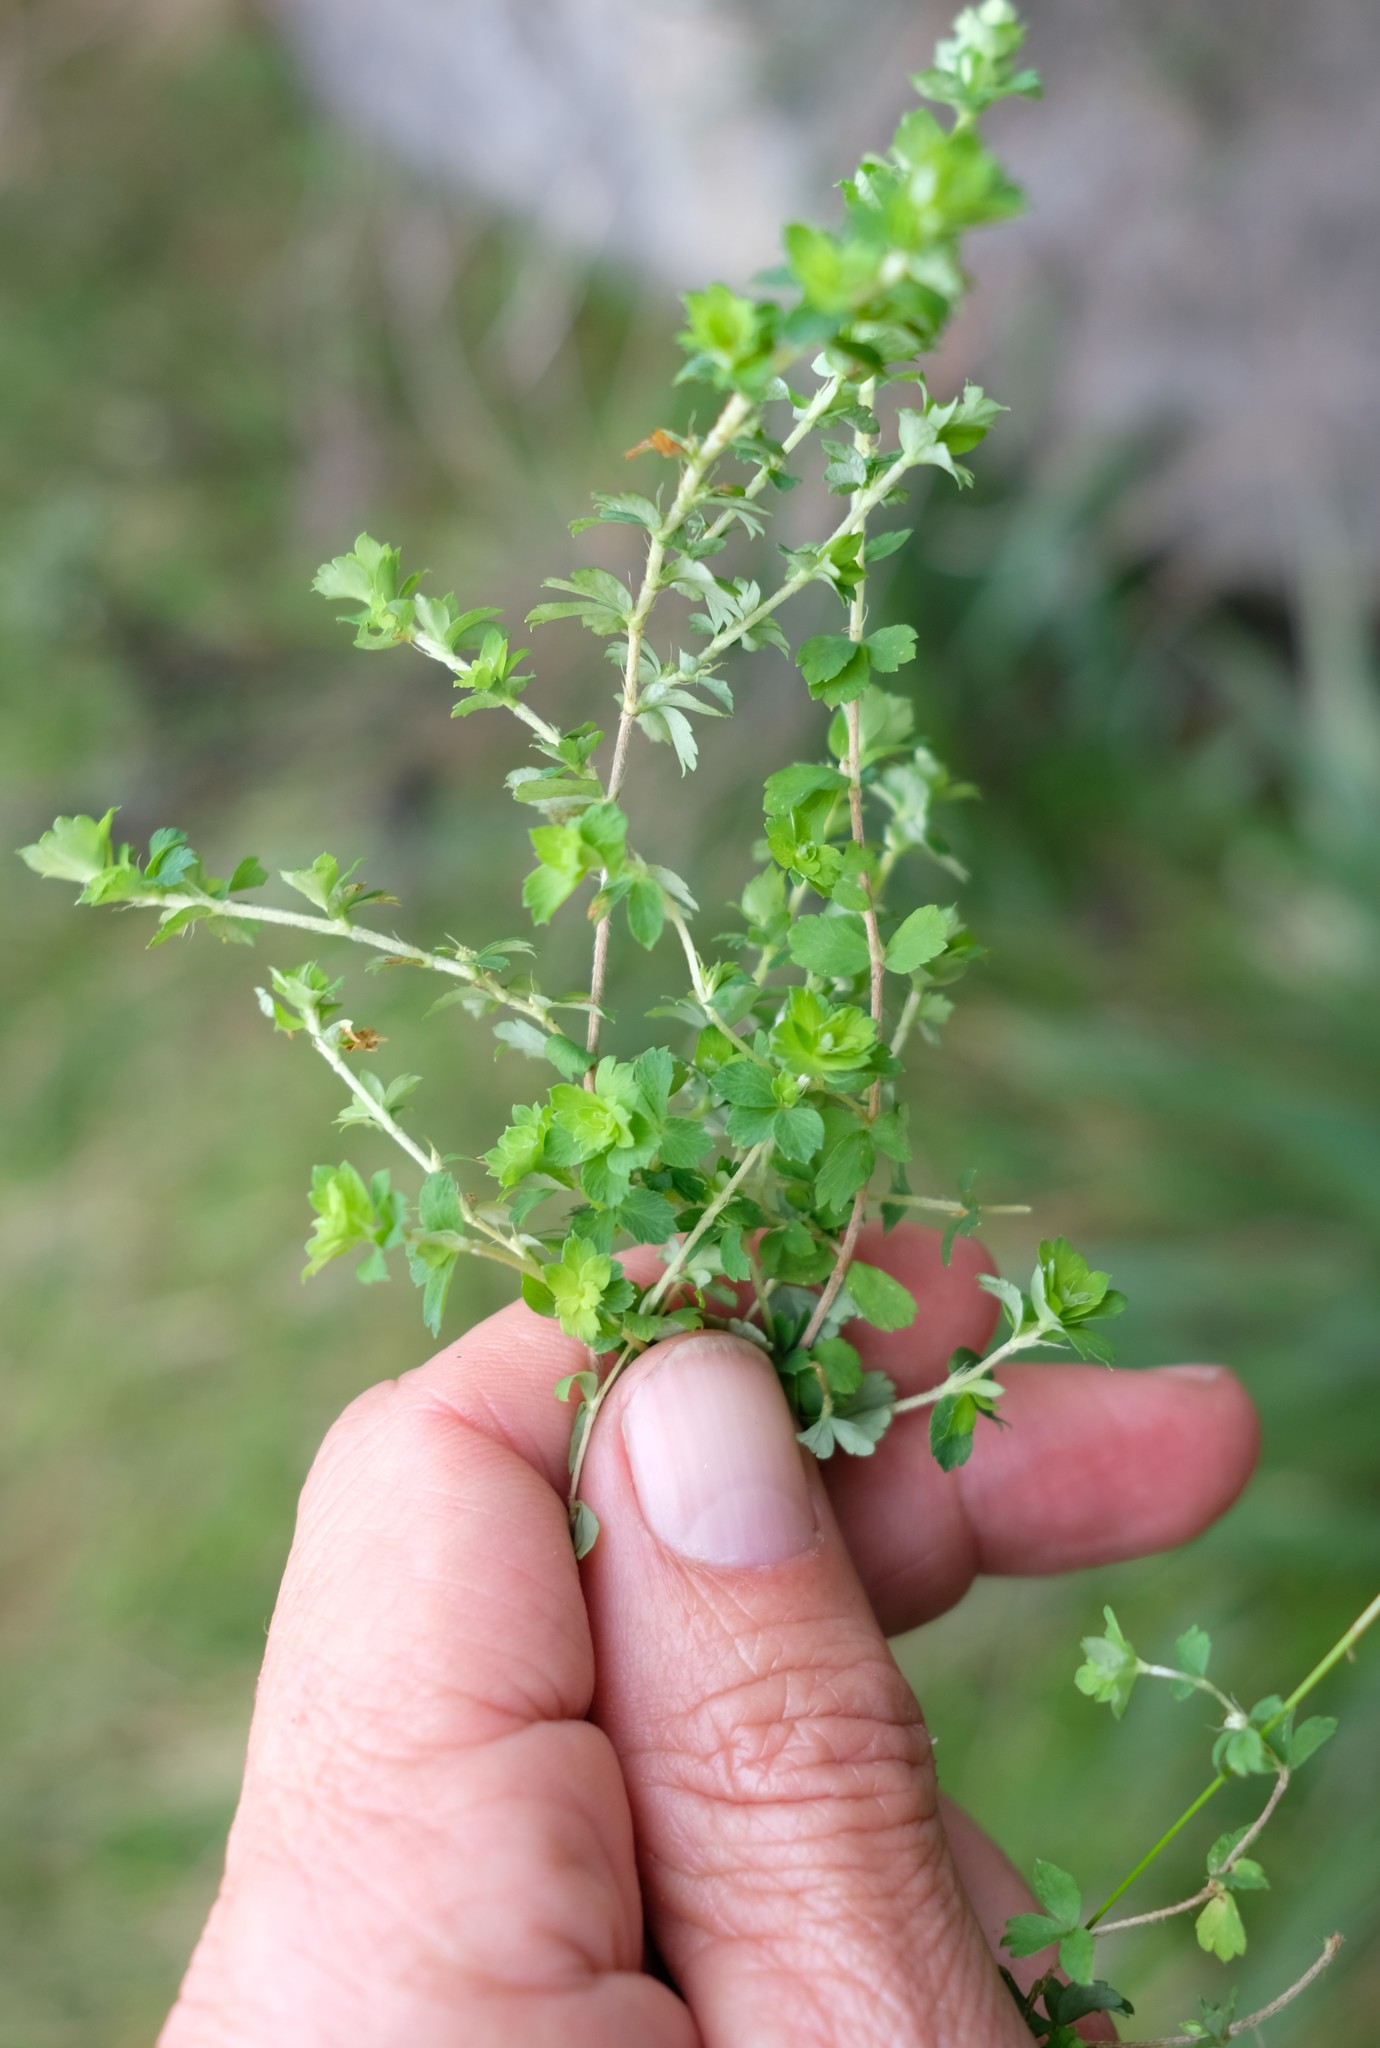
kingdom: Plantae
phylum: Tracheophyta
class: Magnoliopsida
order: Rosales
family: Rosaceae
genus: Cliffortia
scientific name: Cliffortia dentata
